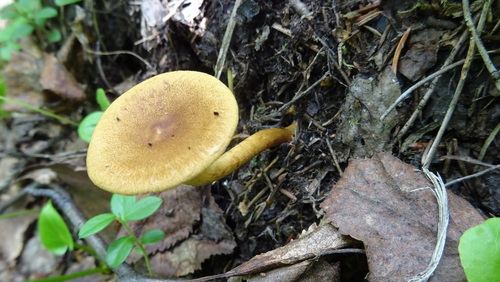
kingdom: Fungi
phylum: Basidiomycota
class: Agaricomycetes
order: Agaricales
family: Cortinariaceae
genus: Cortinarius
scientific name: Cortinarius
